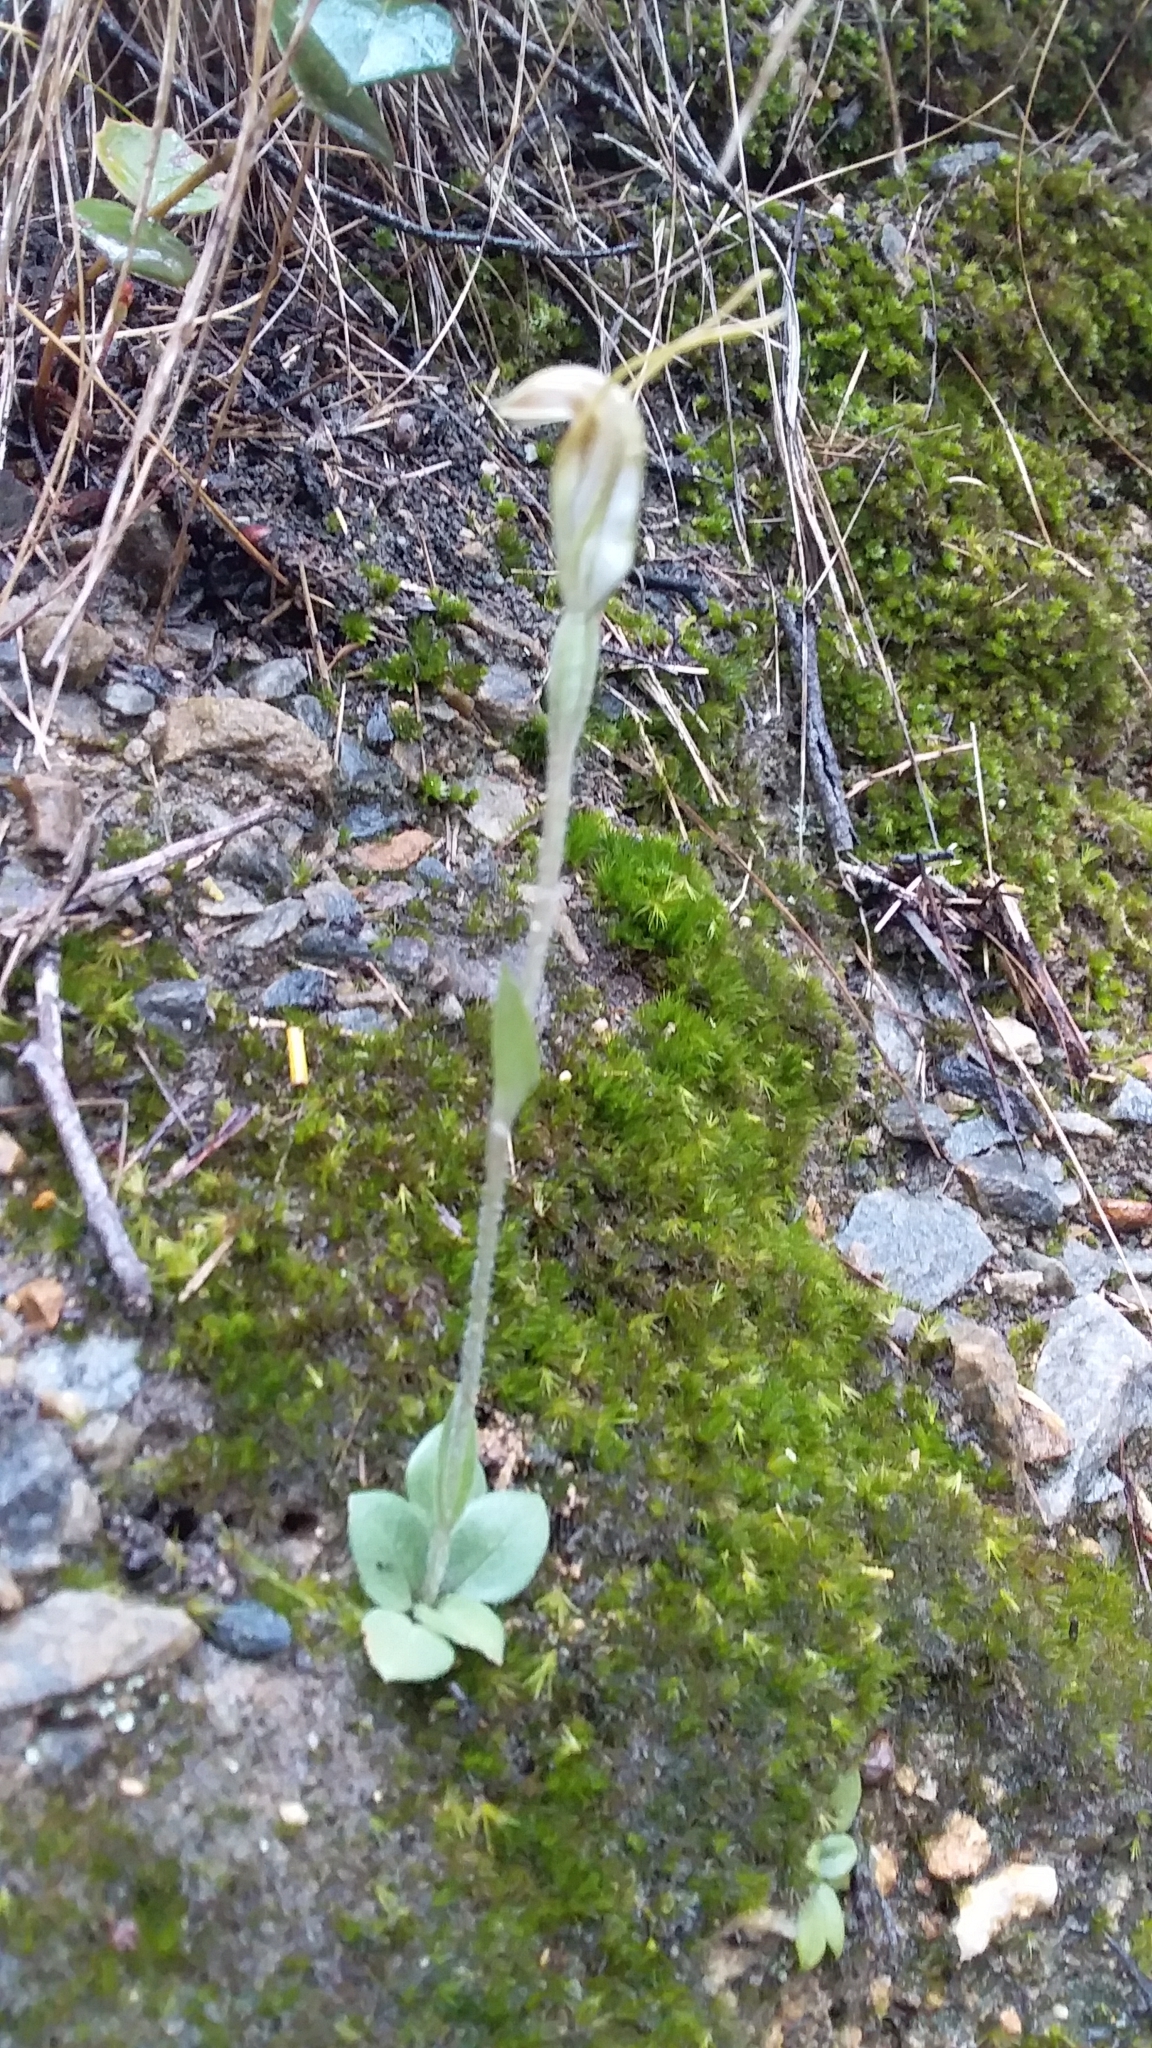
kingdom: Plantae
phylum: Tracheophyta
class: Liliopsida
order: Asparagales
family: Orchidaceae
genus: Pterostylis
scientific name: Pterostylis nana
